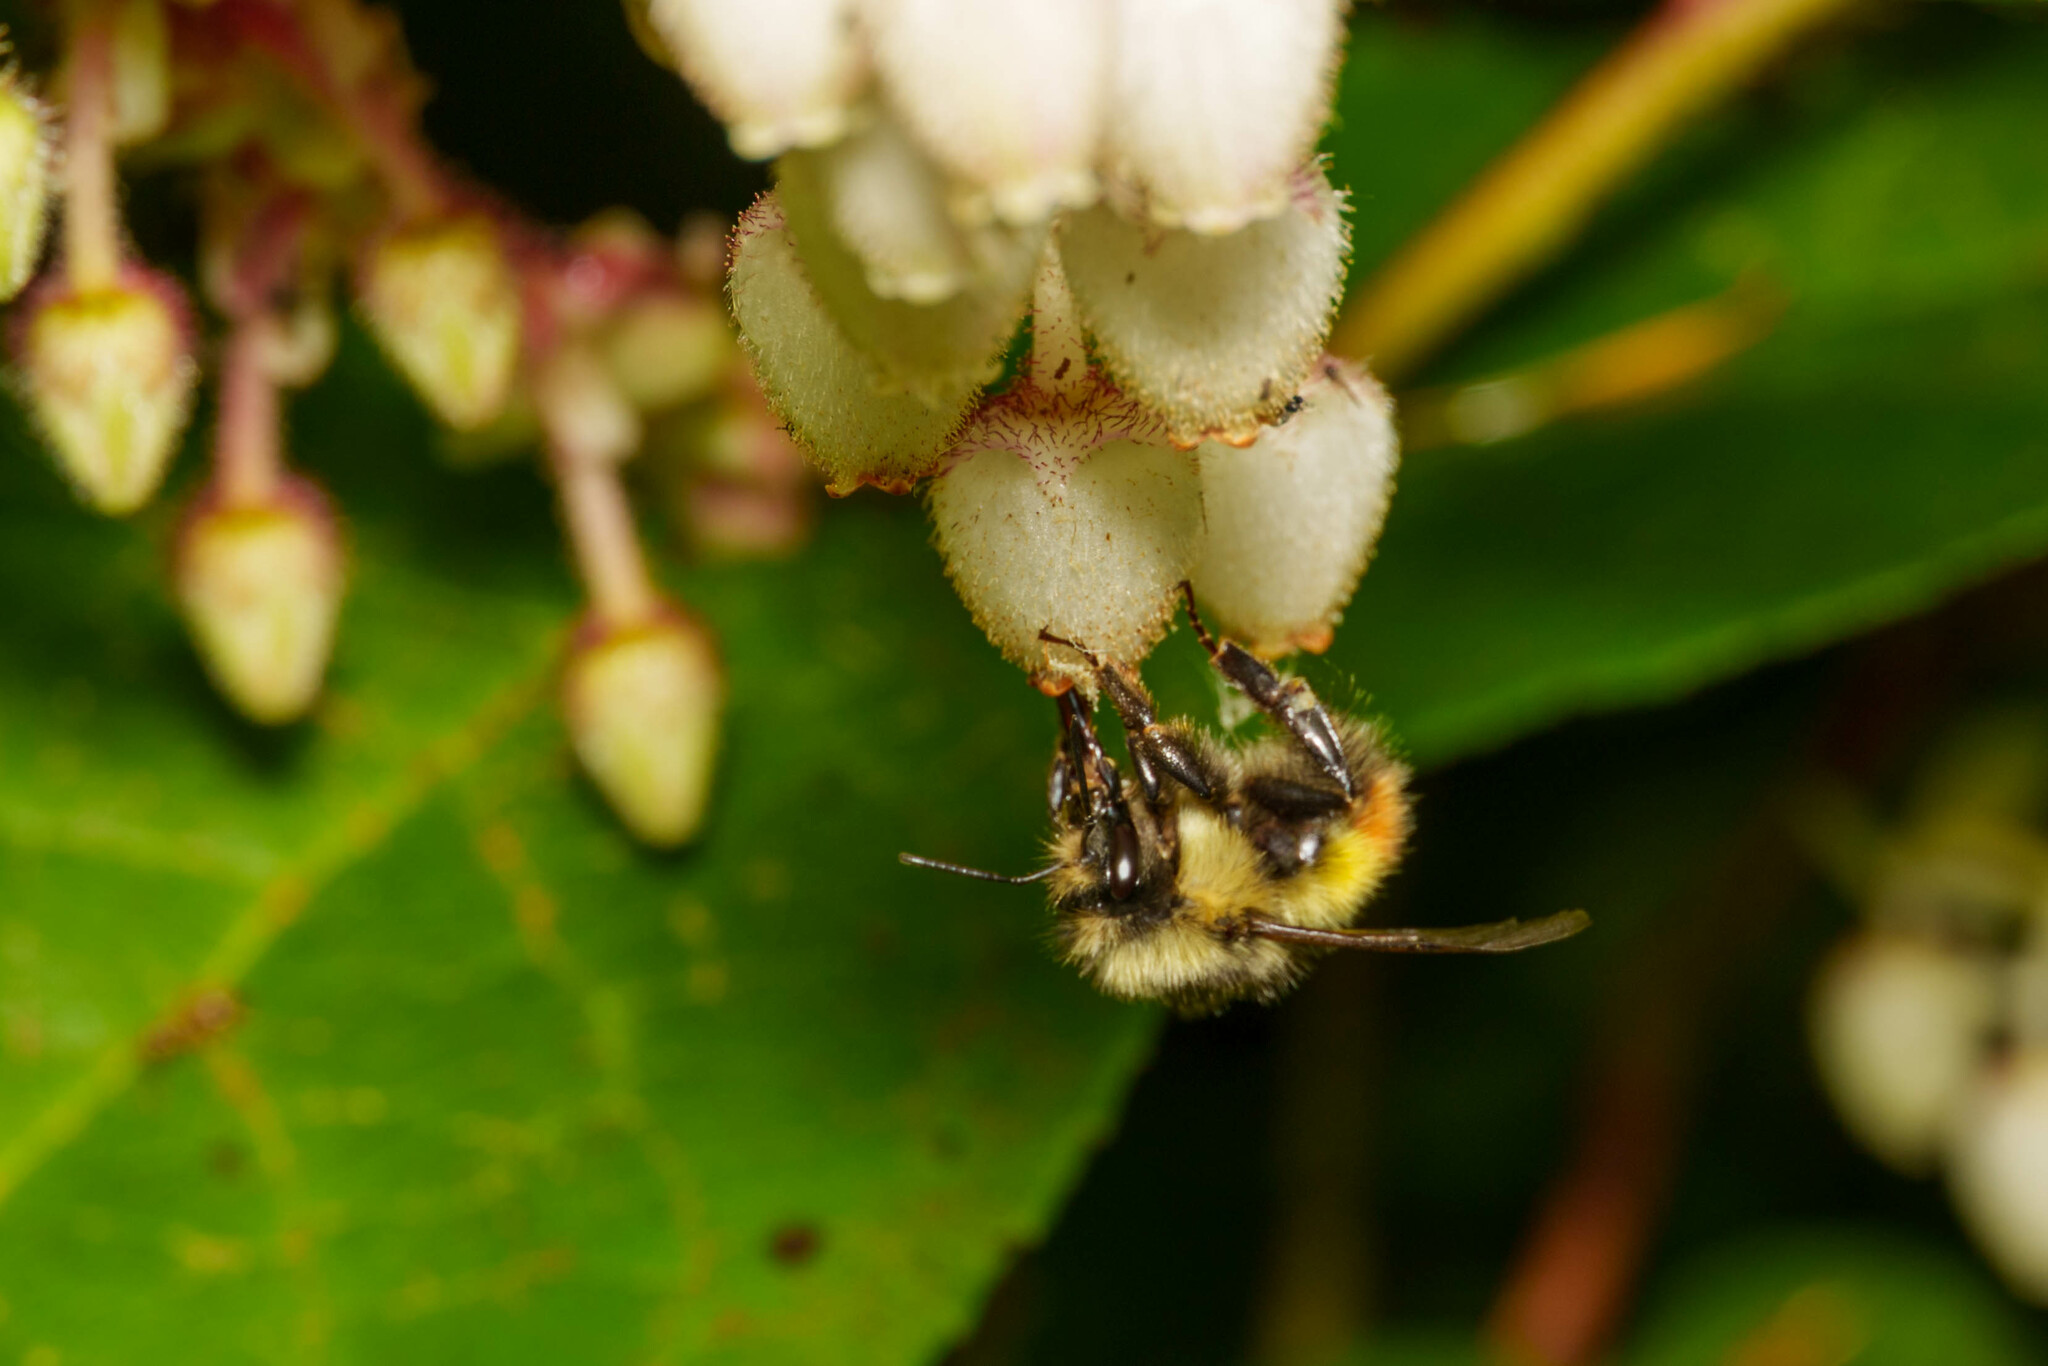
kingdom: Animalia
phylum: Arthropoda
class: Insecta
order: Hymenoptera
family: Apidae
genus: Bombus
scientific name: Bombus flavifrons
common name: Yellow head bumble bee
